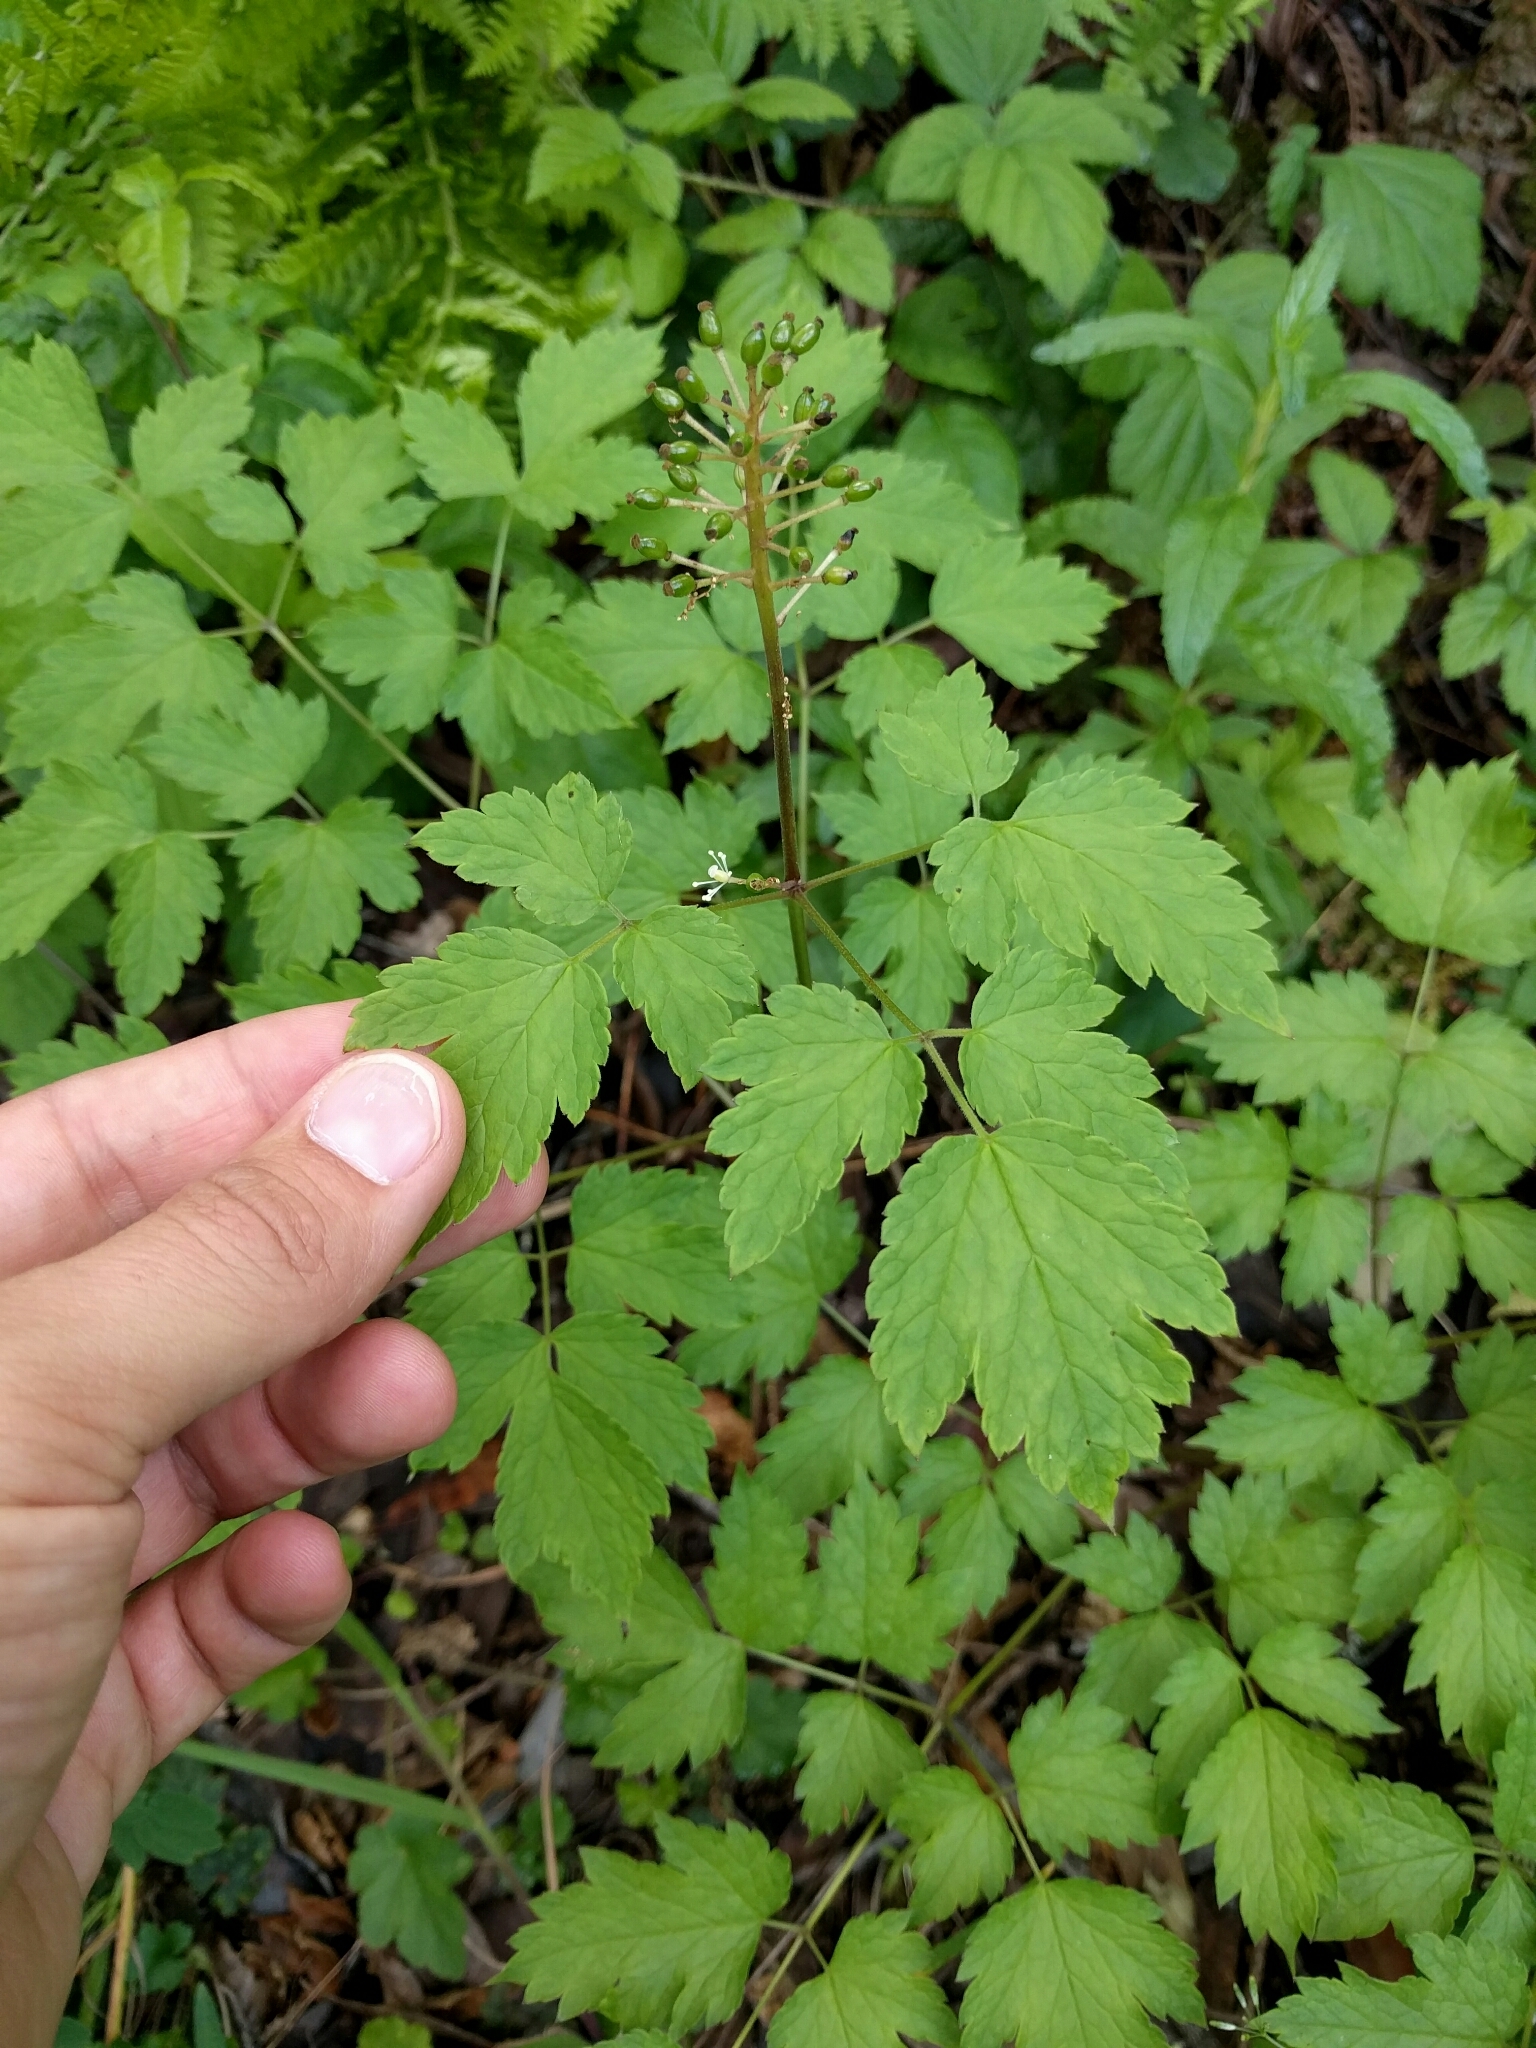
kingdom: Plantae
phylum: Tracheophyta
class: Magnoliopsida
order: Ranunculales
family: Ranunculaceae
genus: Actaea
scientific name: Actaea rubra
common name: Red baneberry
